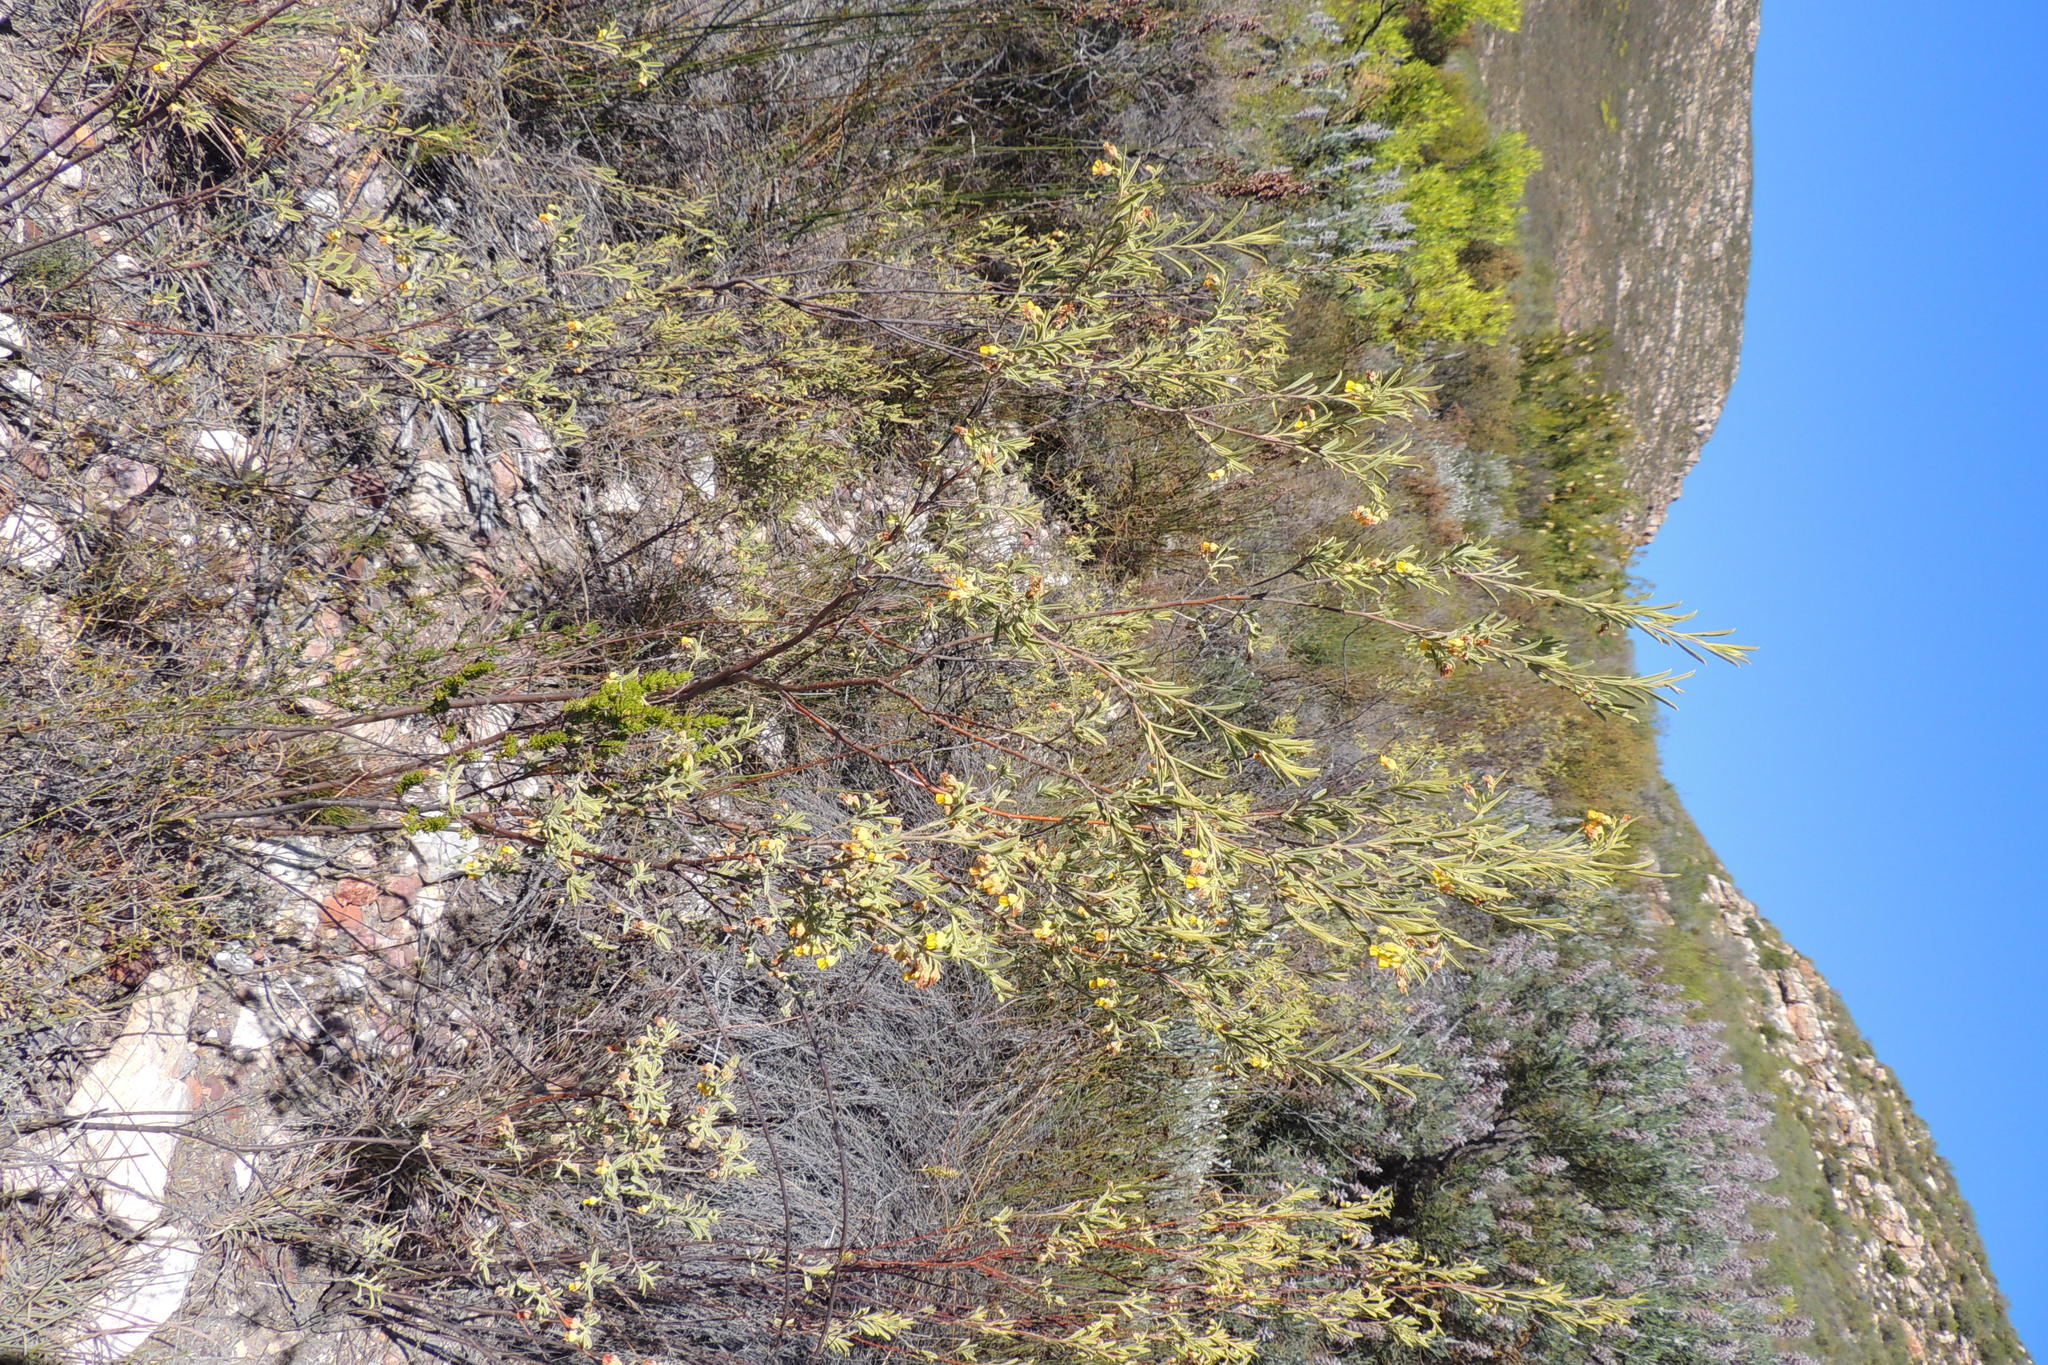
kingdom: Plantae
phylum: Tracheophyta
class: Magnoliopsida
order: Malvales
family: Malvaceae
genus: Hermannia
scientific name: Hermannia odorata
